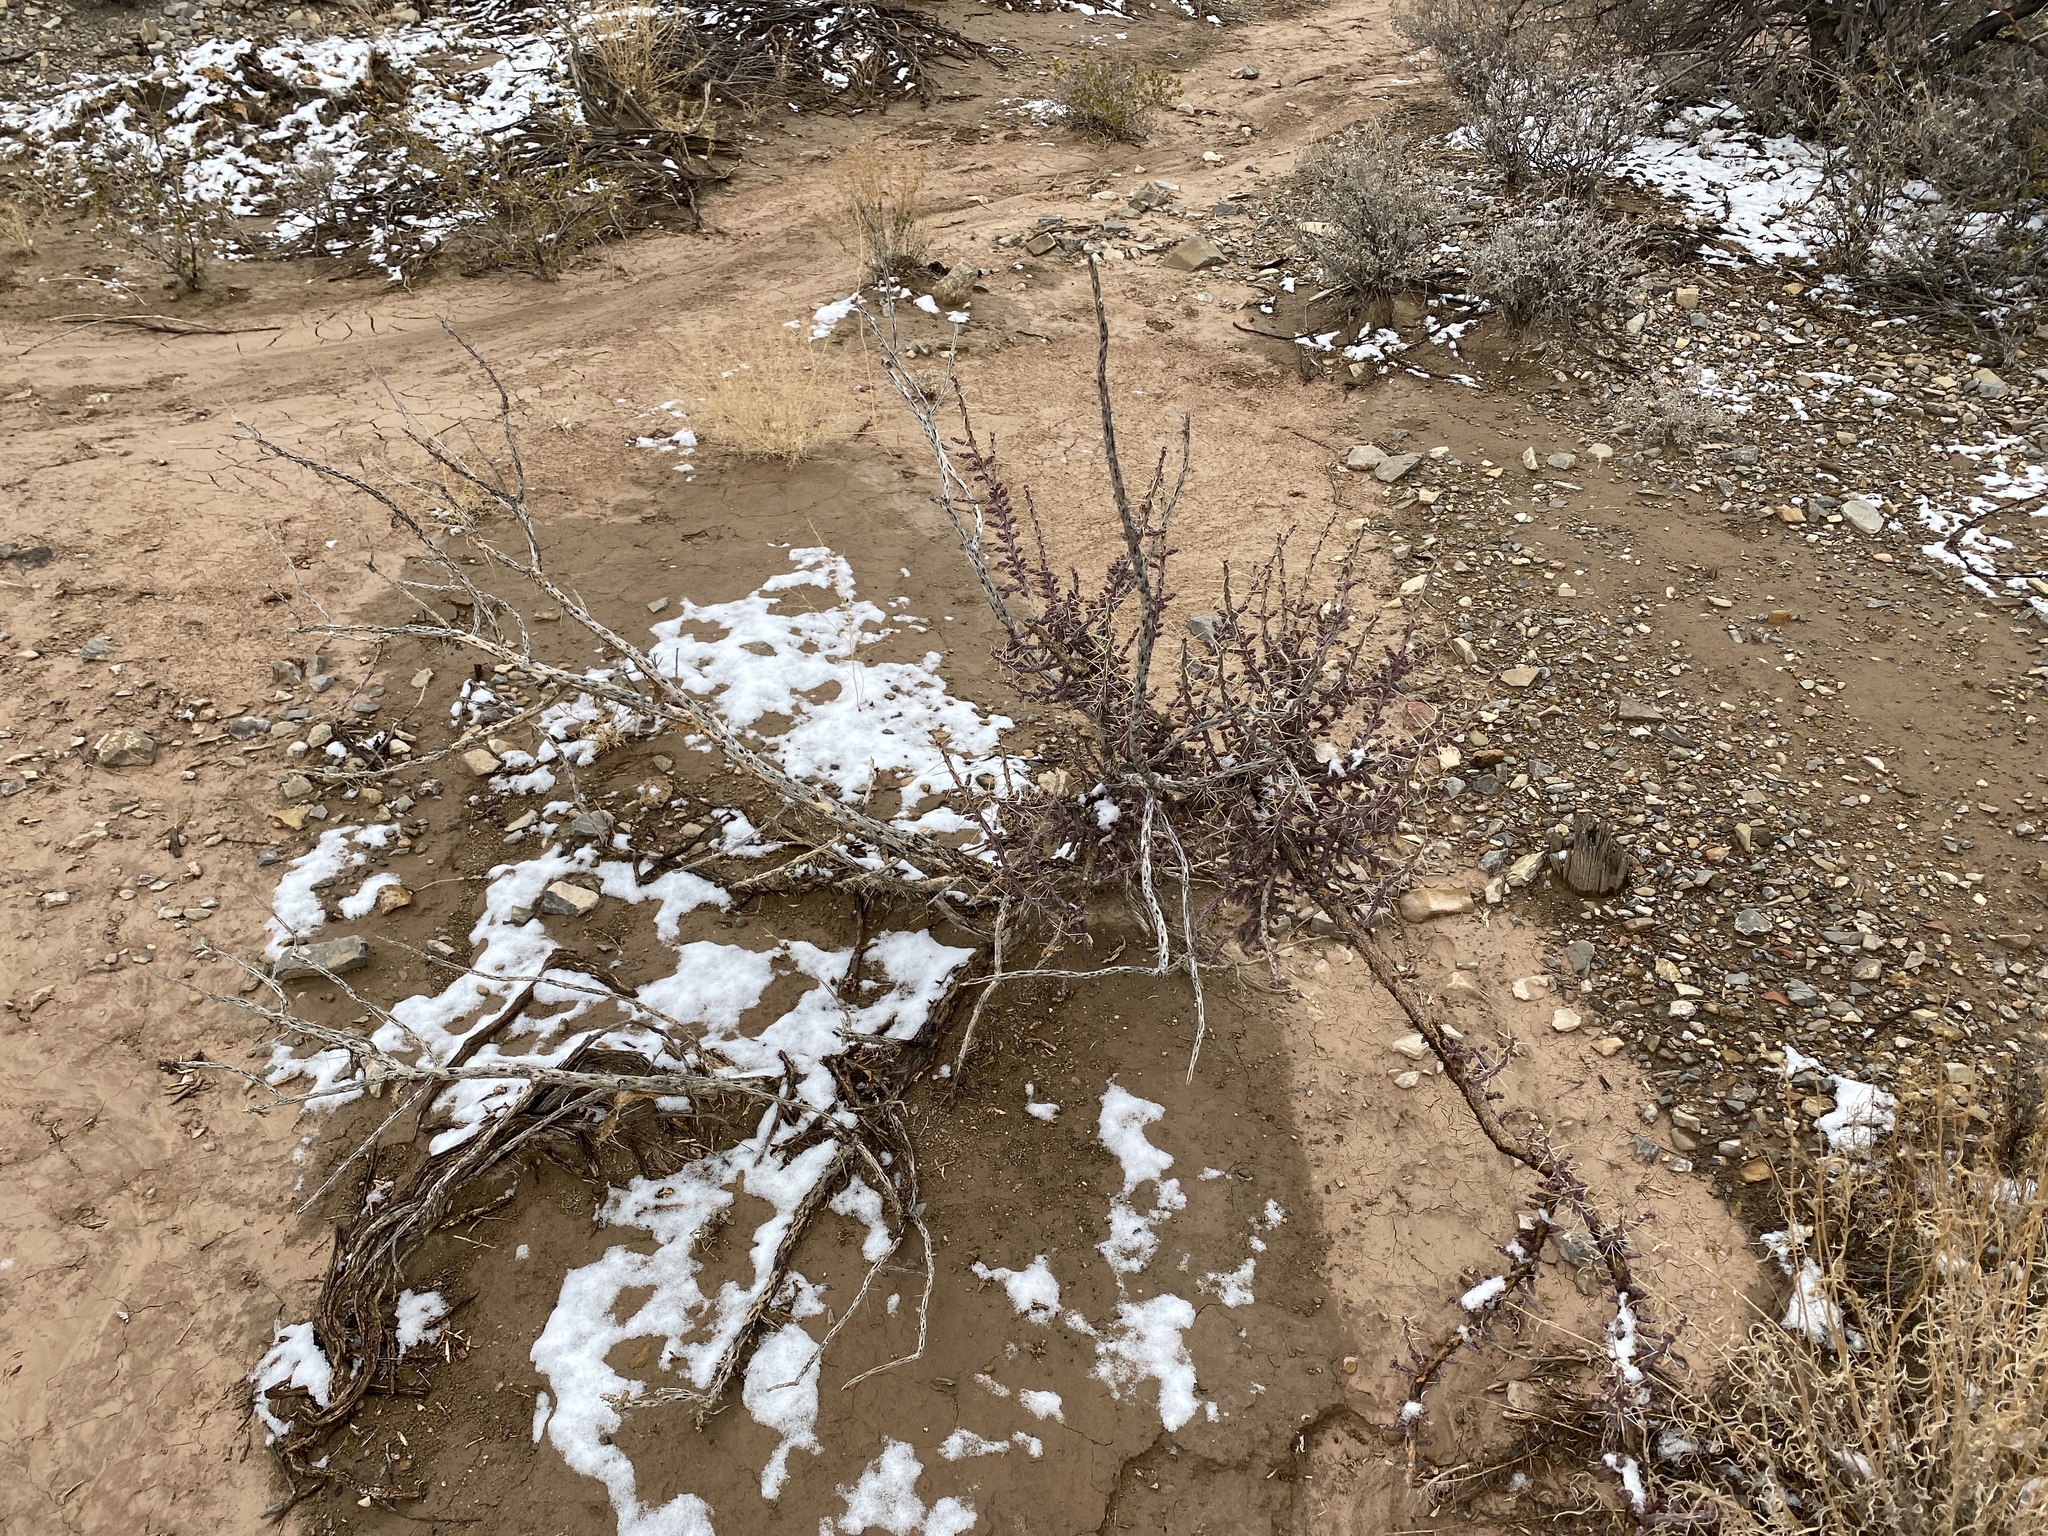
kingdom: Plantae
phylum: Tracheophyta
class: Magnoliopsida
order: Caryophyllales
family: Cactaceae
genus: Cylindropuntia
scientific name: Cylindropuntia leptocaulis
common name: Christmas cactus
